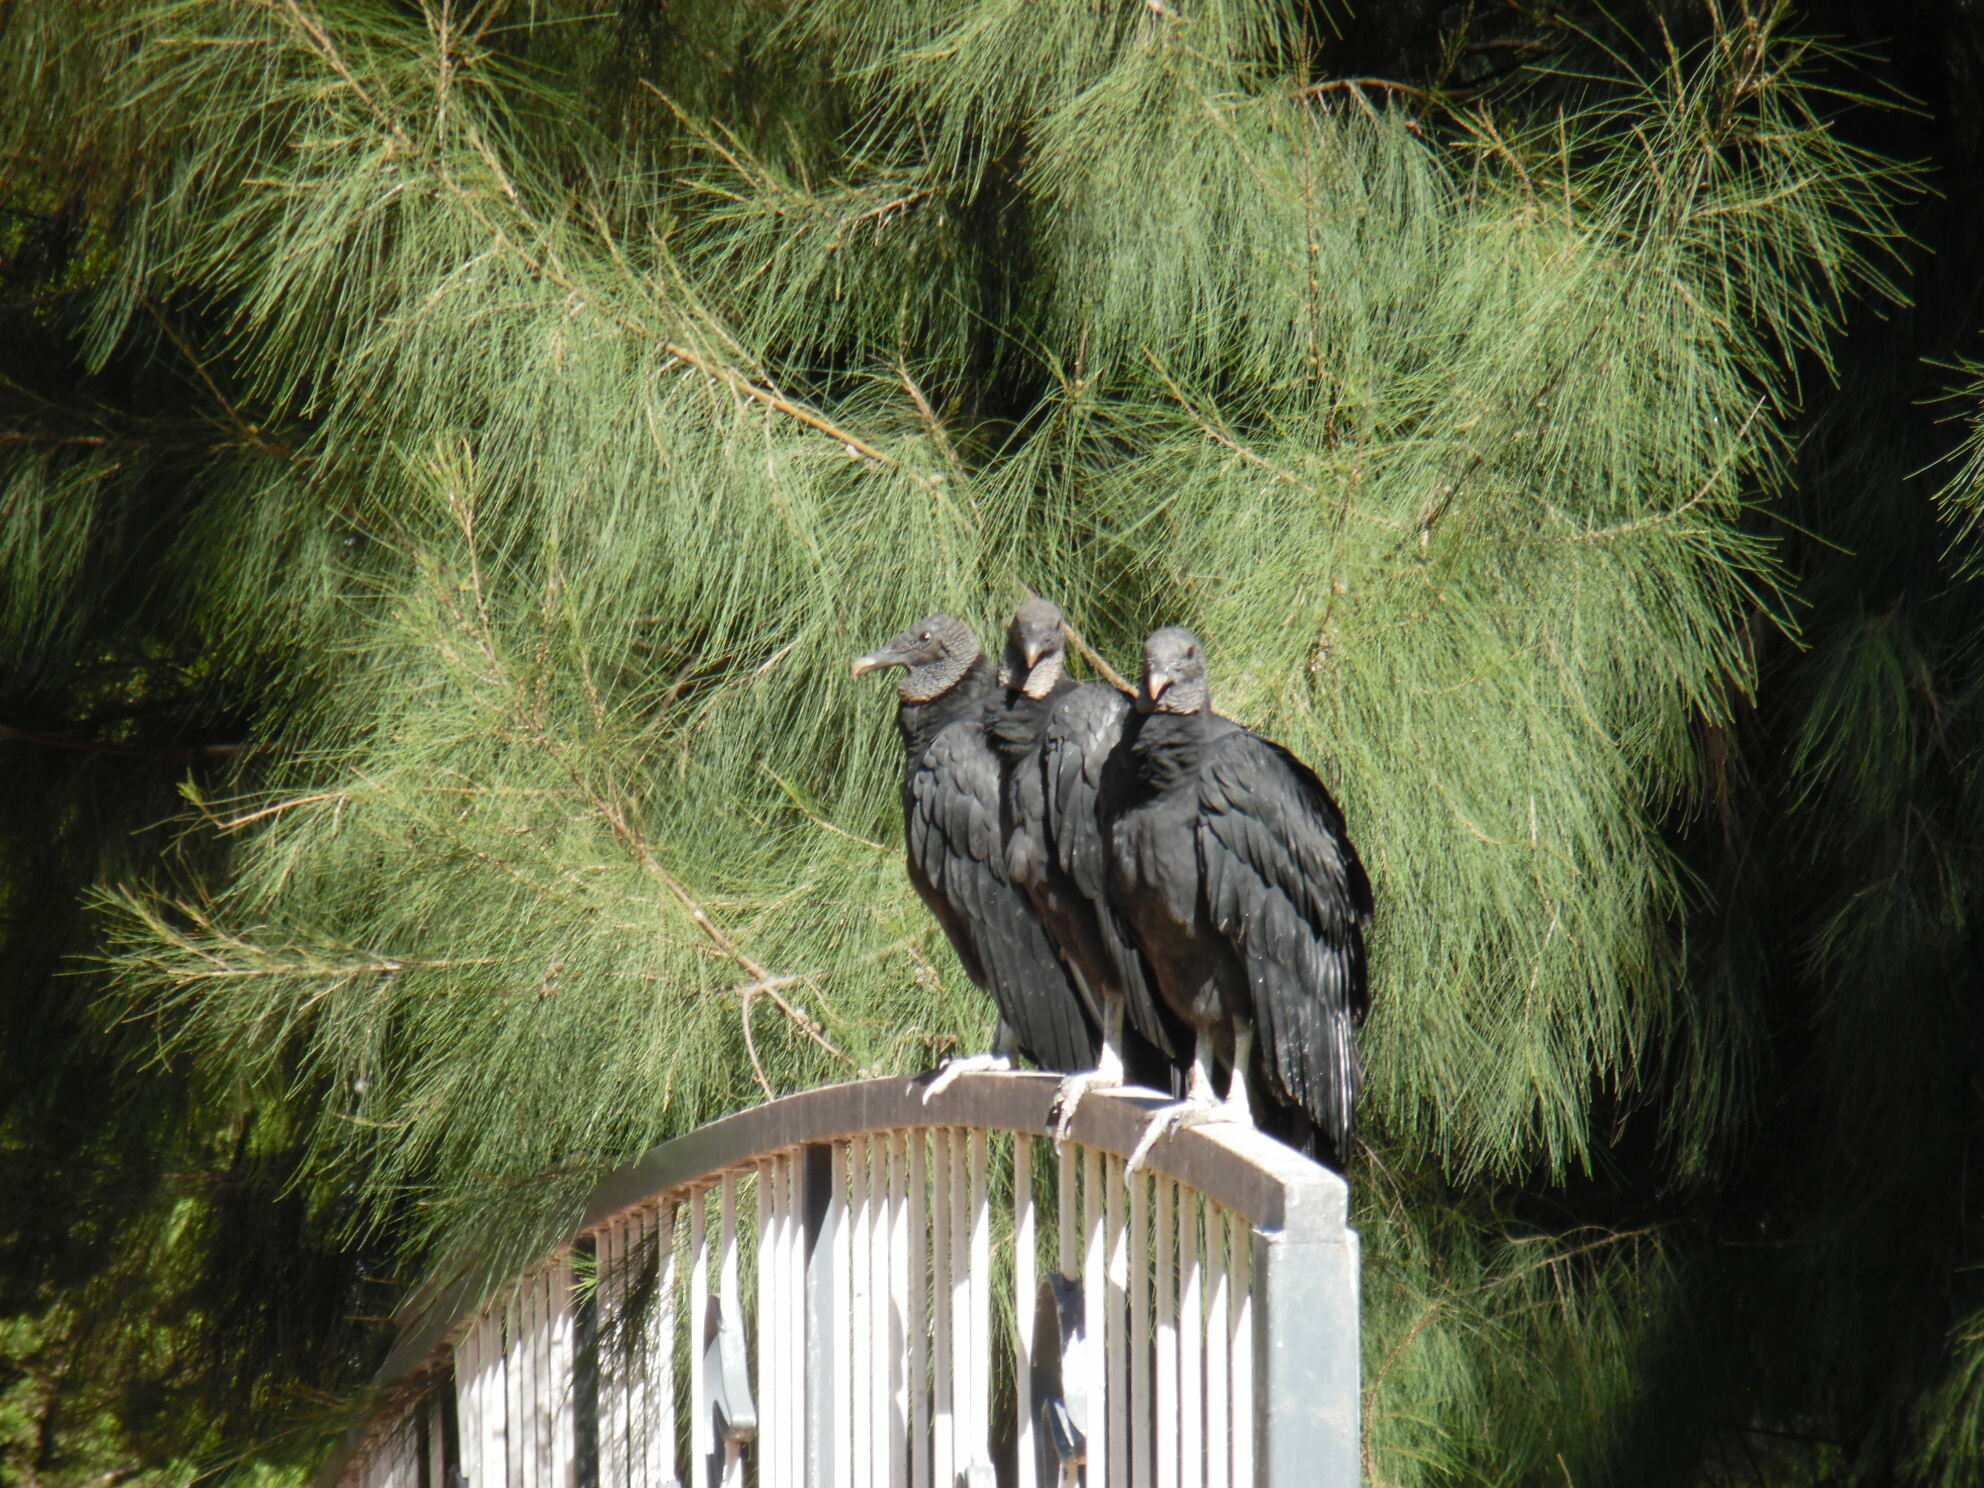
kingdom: Animalia
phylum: Chordata
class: Aves
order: Accipitriformes
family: Cathartidae
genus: Coragyps
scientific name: Coragyps atratus
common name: Black vulture
